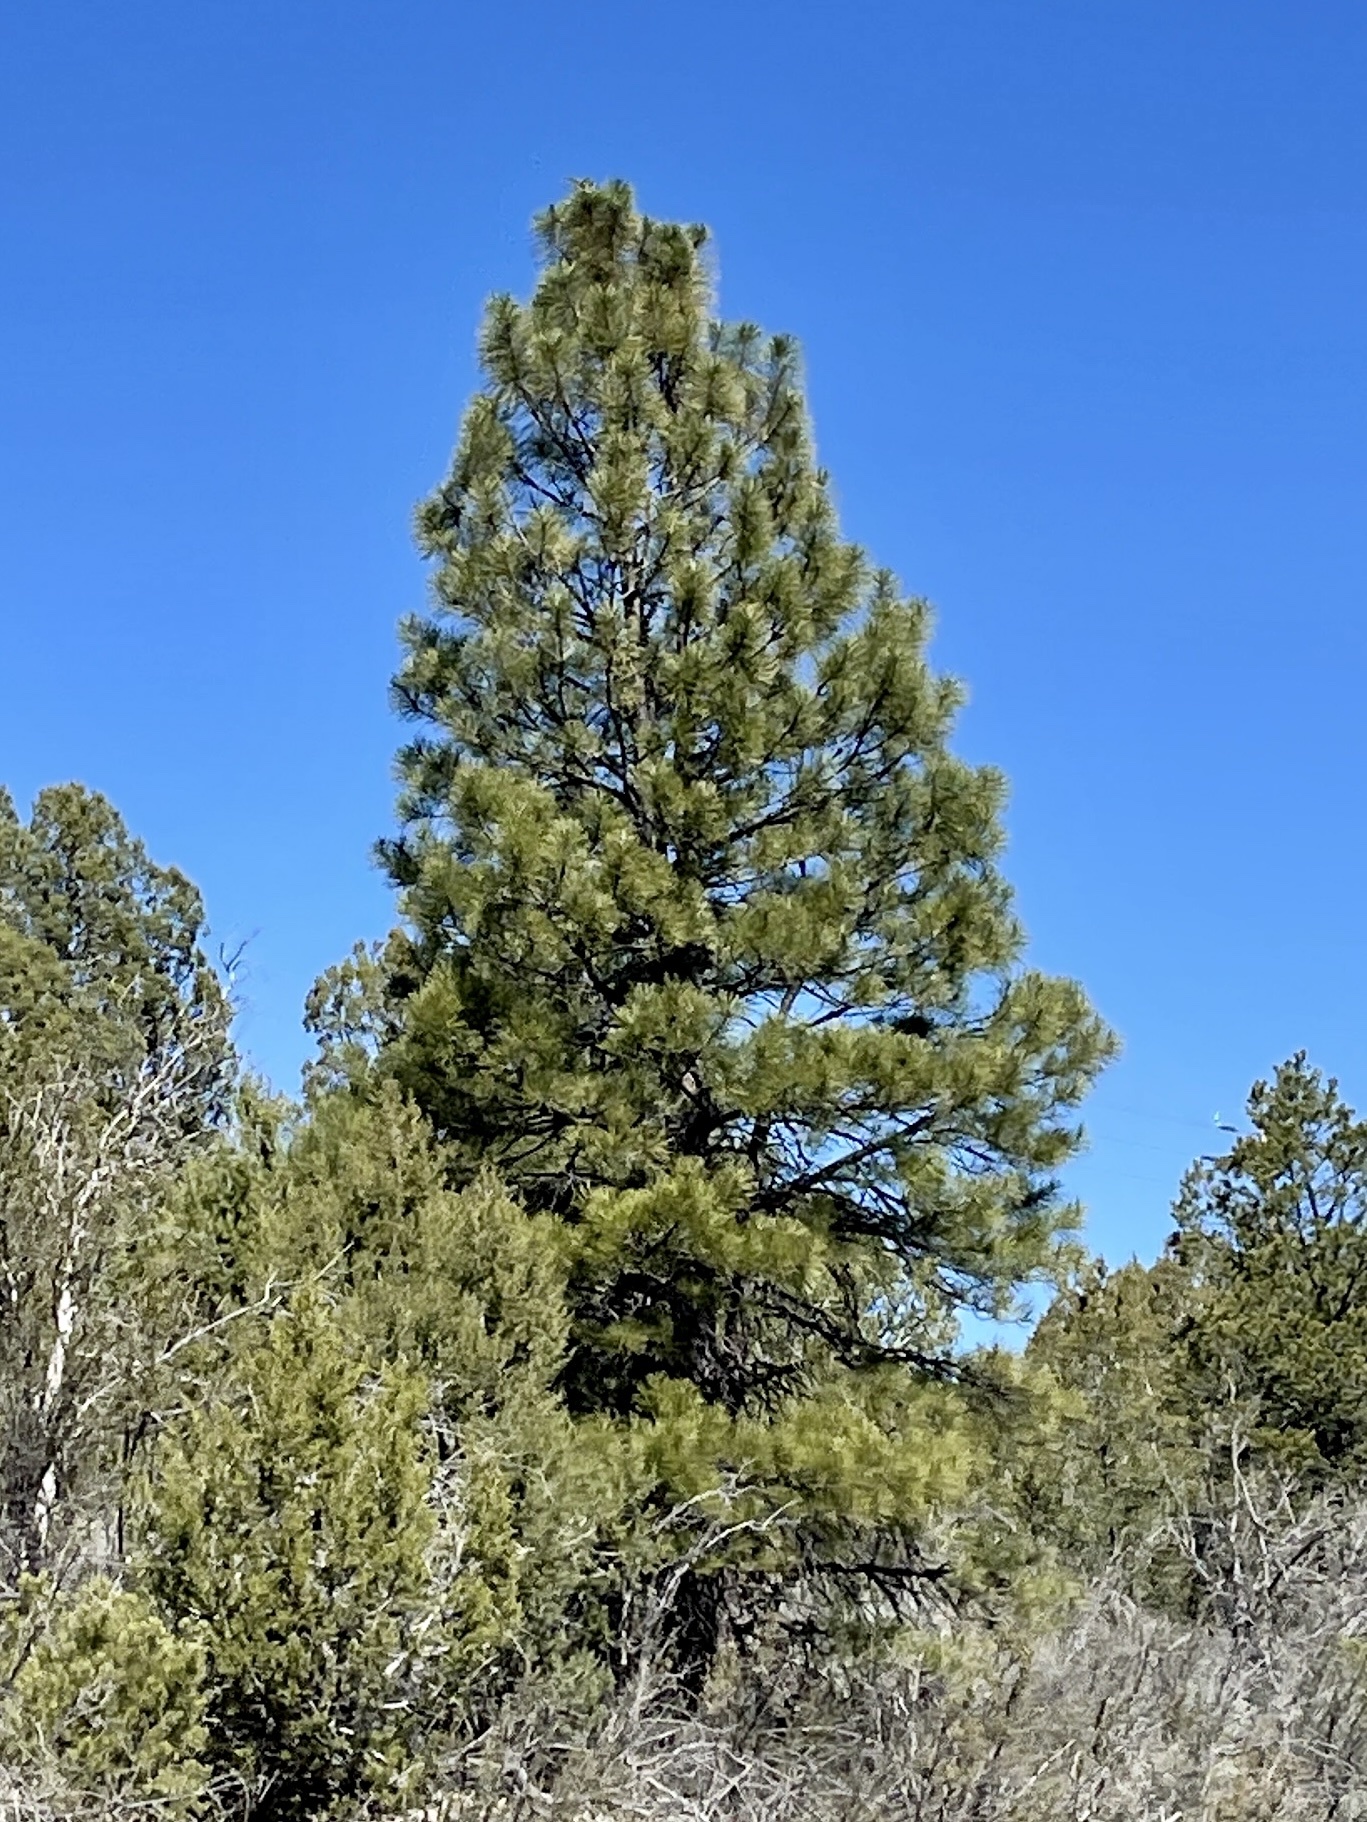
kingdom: Plantae
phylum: Tracheophyta
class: Pinopsida
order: Pinales
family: Pinaceae
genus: Pinus
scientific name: Pinus ponderosa
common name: Western yellow-pine
